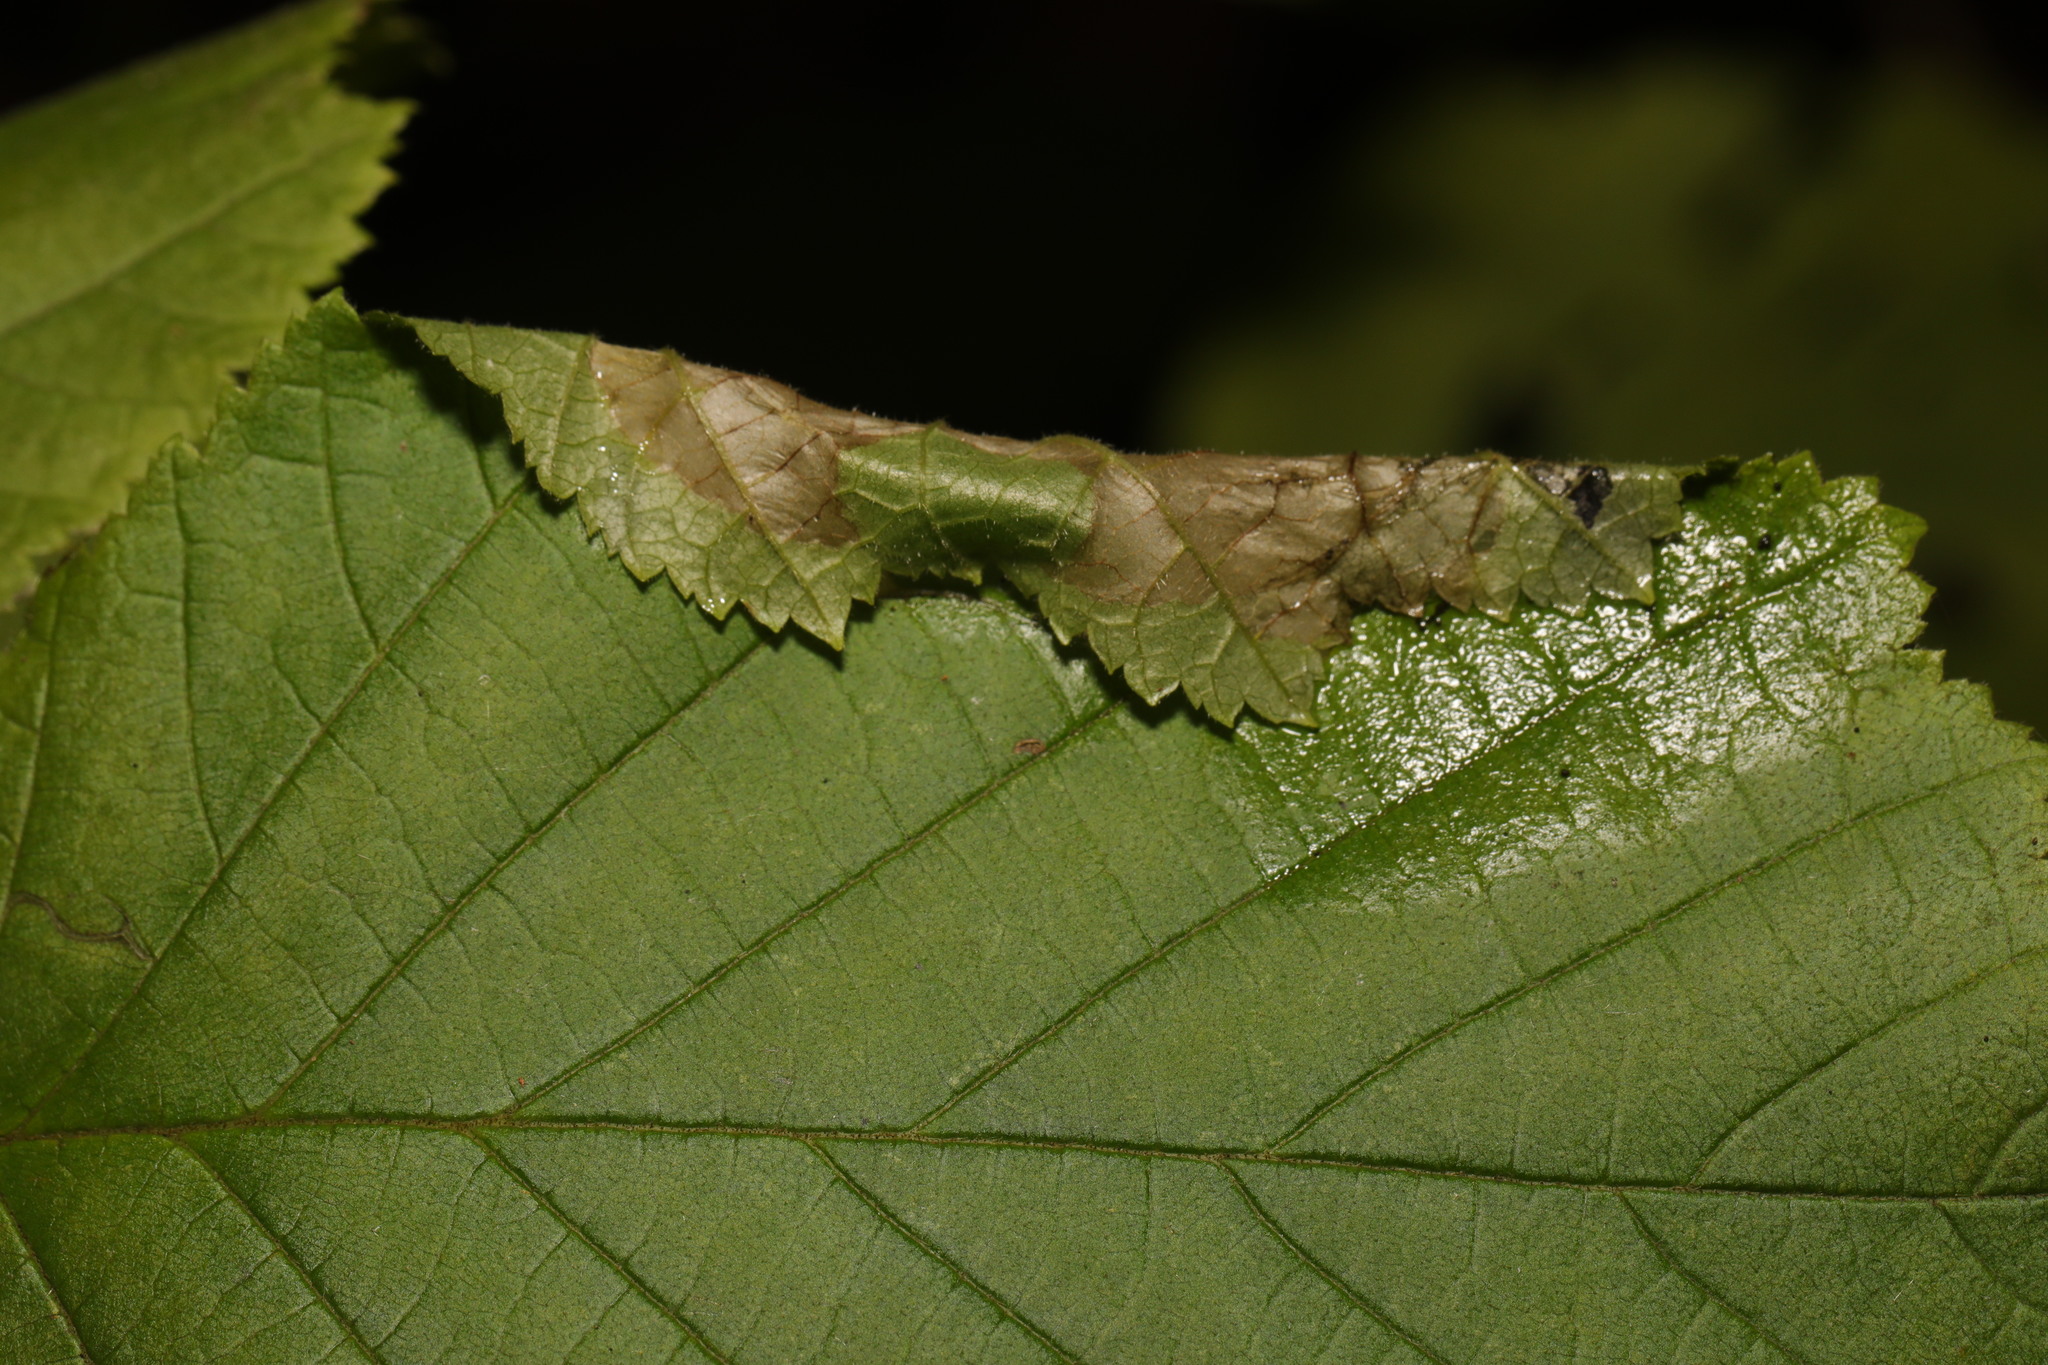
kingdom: Animalia
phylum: Arthropoda
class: Insecta
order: Lepidoptera
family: Gracillariidae
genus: Parornix
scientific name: Parornix devoniella
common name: Hazel slender
